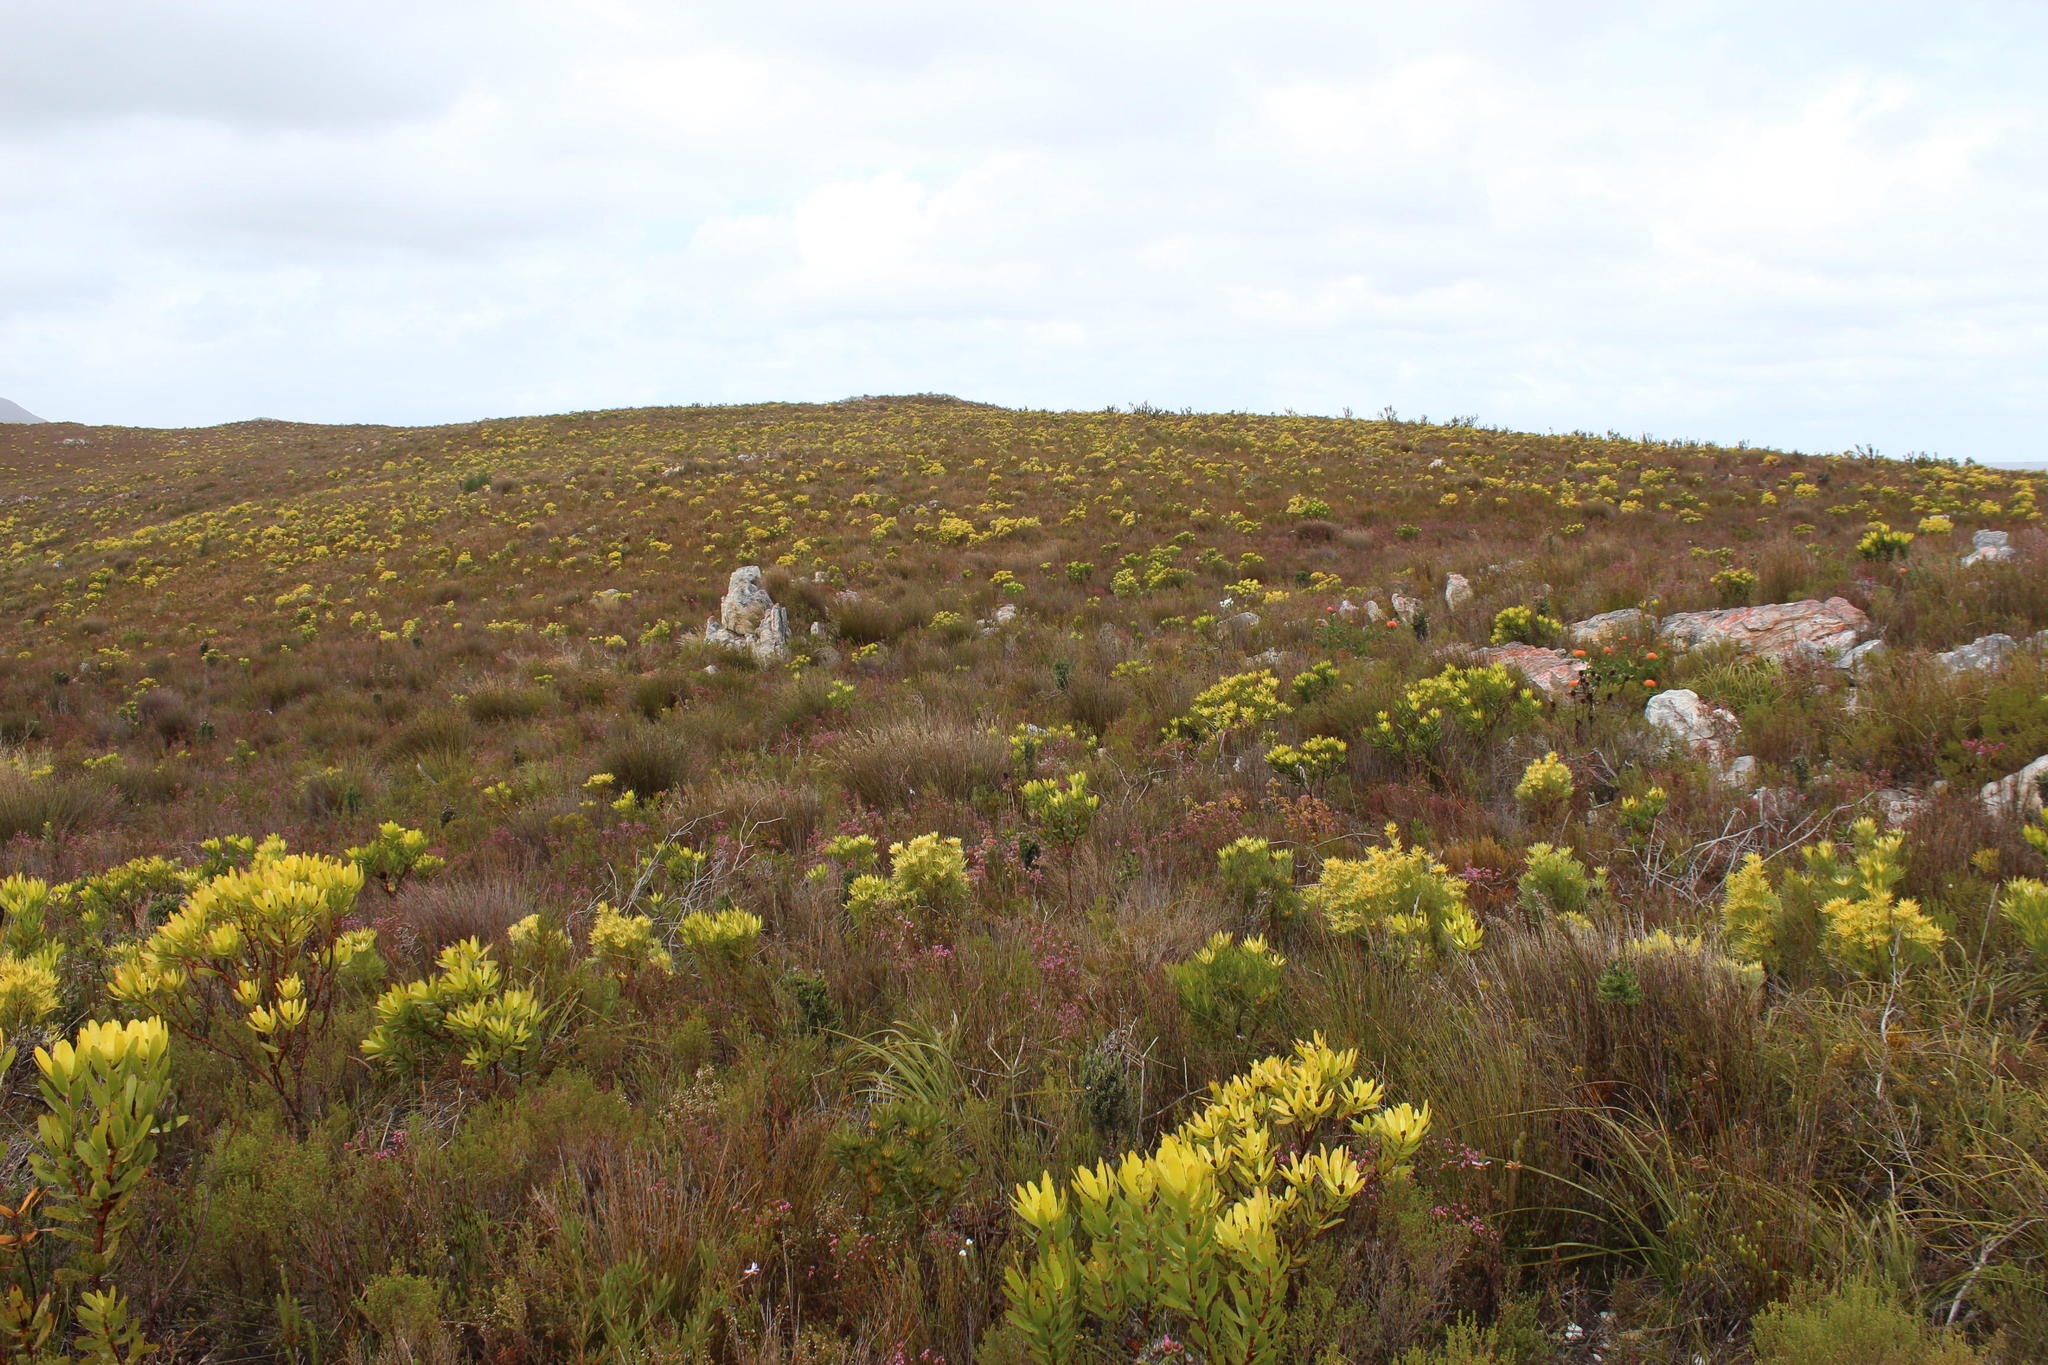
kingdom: Plantae
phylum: Tracheophyta
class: Magnoliopsida
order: Proteales
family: Proteaceae
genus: Leucadendron
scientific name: Leucadendron gandogeri
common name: Broad-leaf conebush
